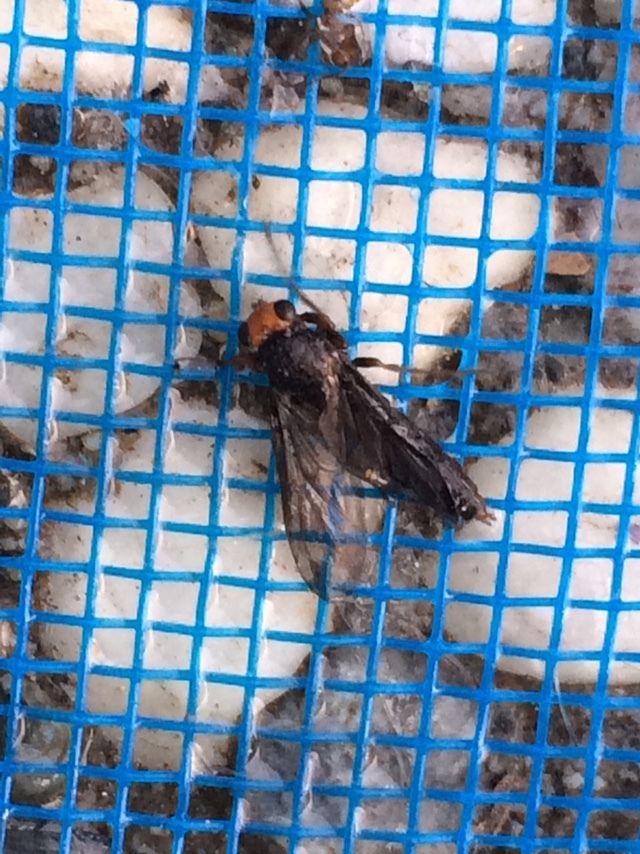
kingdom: Animalia
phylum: Arthropoda
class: Insecta
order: Diptera
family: Stratiomyidae
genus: Inopus
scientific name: Inopus rubriceps
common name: Soldier fly
